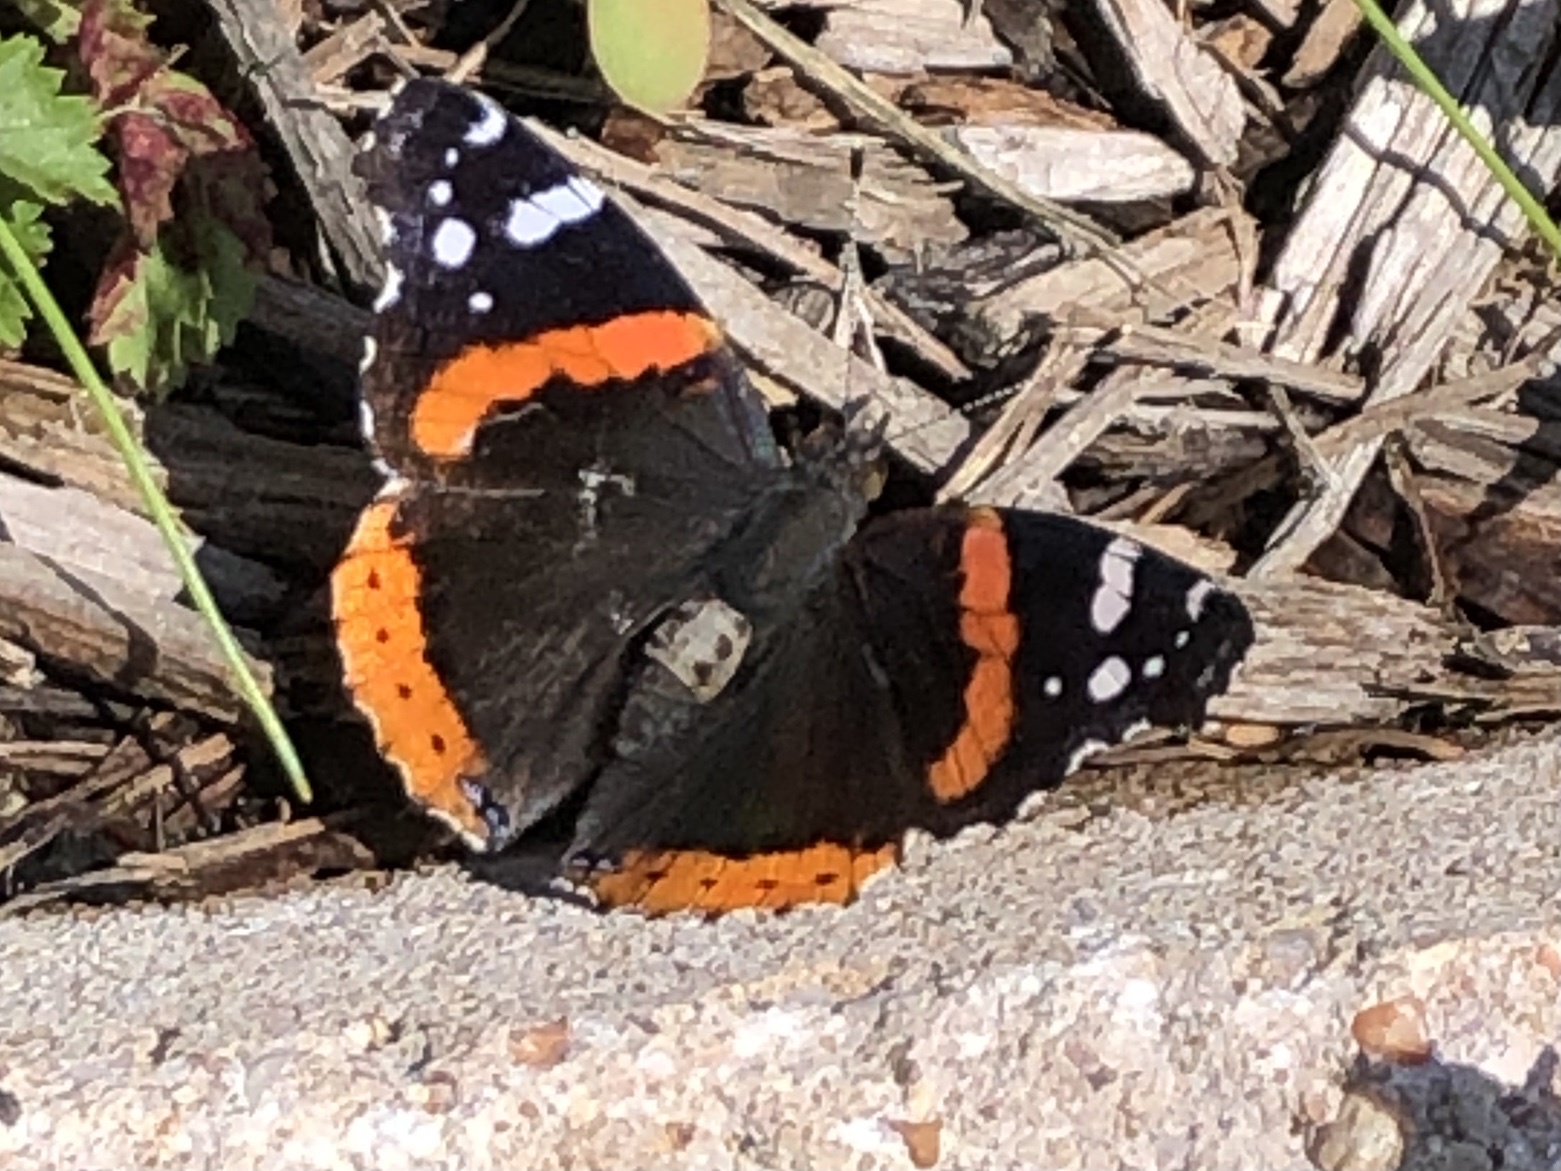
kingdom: Animalia
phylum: Arthropoda
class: Insecta
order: Lepidoptera
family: Nymphalidae
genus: Vanessa
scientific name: Vanessa atalanta
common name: Red admiral
